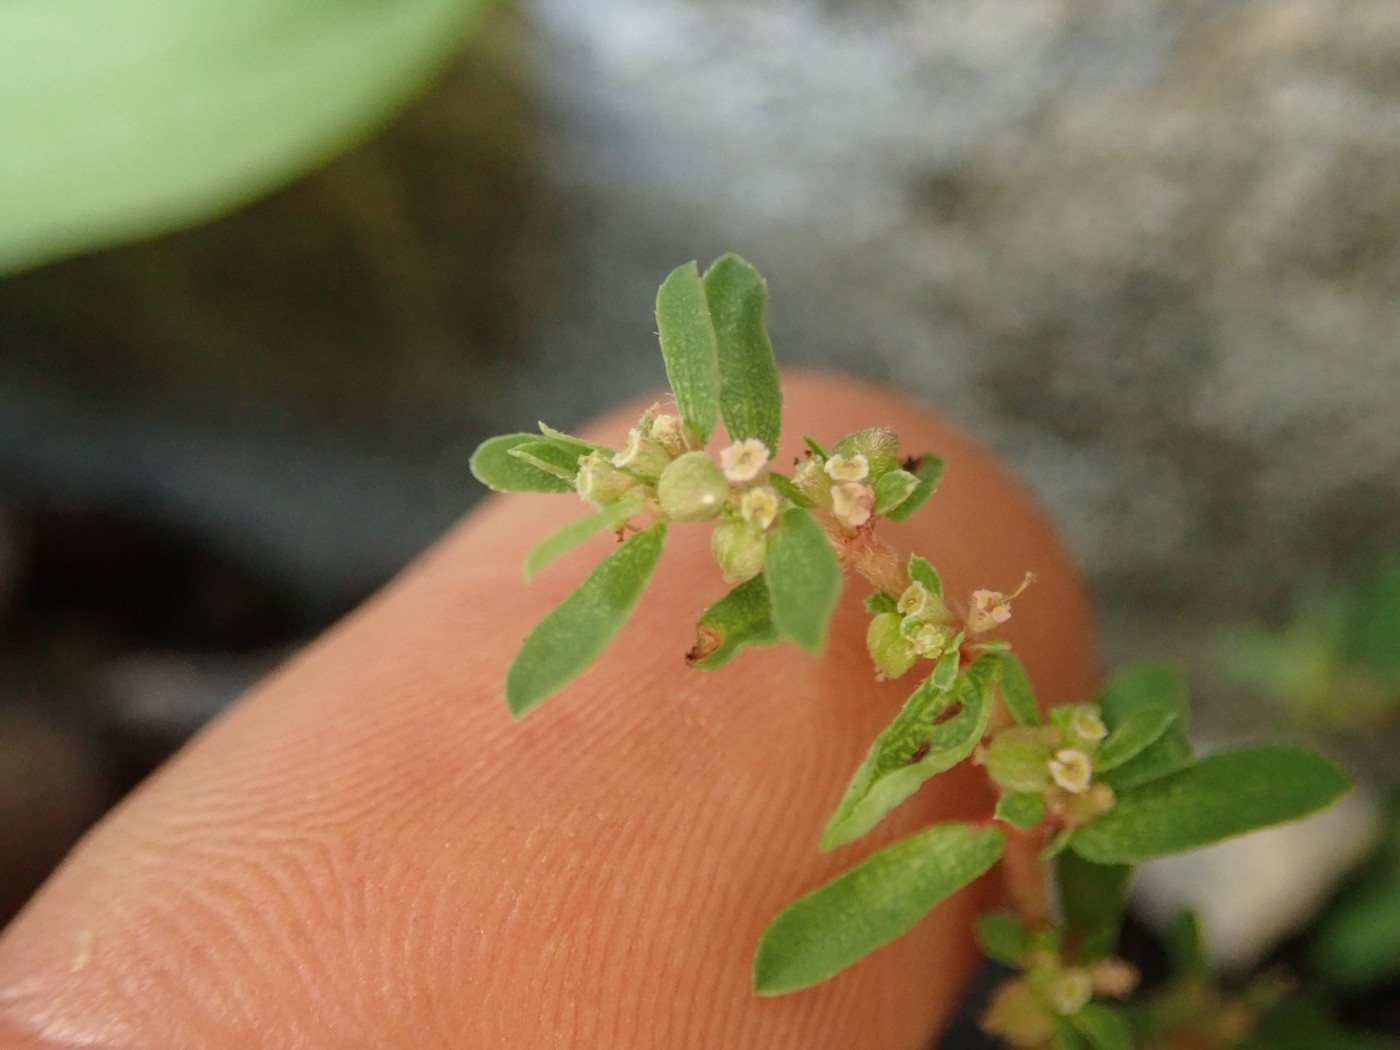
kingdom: Plantae
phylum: Tracheophyta
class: Magnoliopsida
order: Malpighiales
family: Euphorbiaceae
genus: Euphorbia
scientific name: Euphorbia maculata
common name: Spotted spurge
